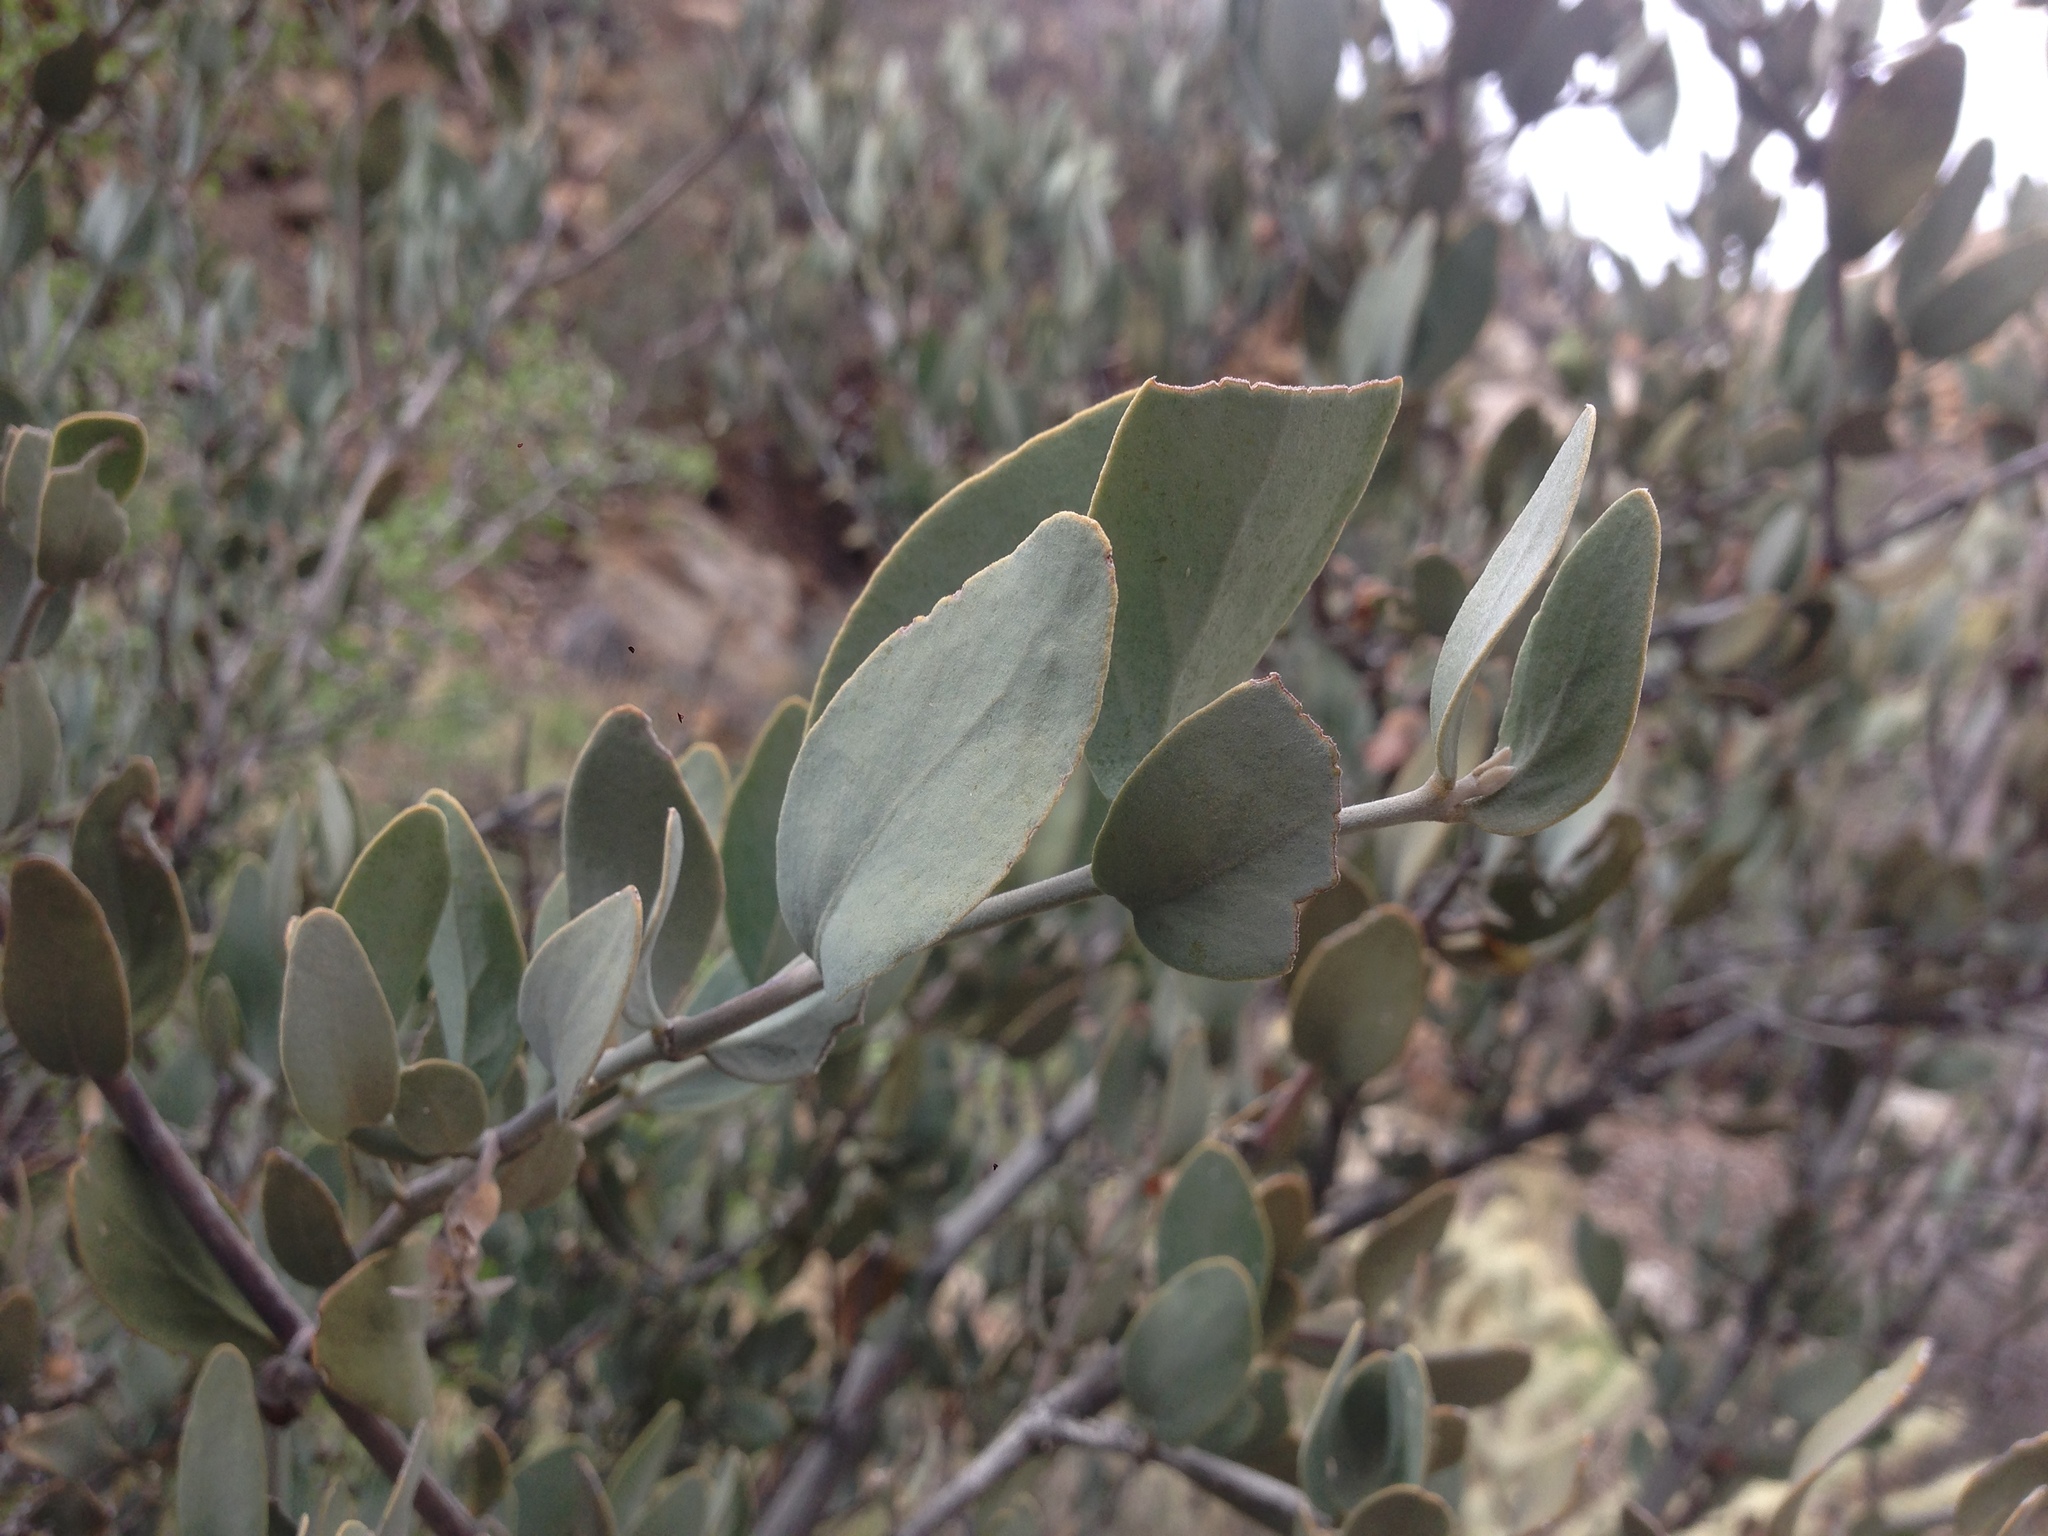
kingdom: Plantae
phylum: Tracheophyta
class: Magnoliopsida
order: Caryophyllales
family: Simmondsiaceae
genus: Simmondsia
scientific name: Simmondsia chinensis
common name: Jojoba
